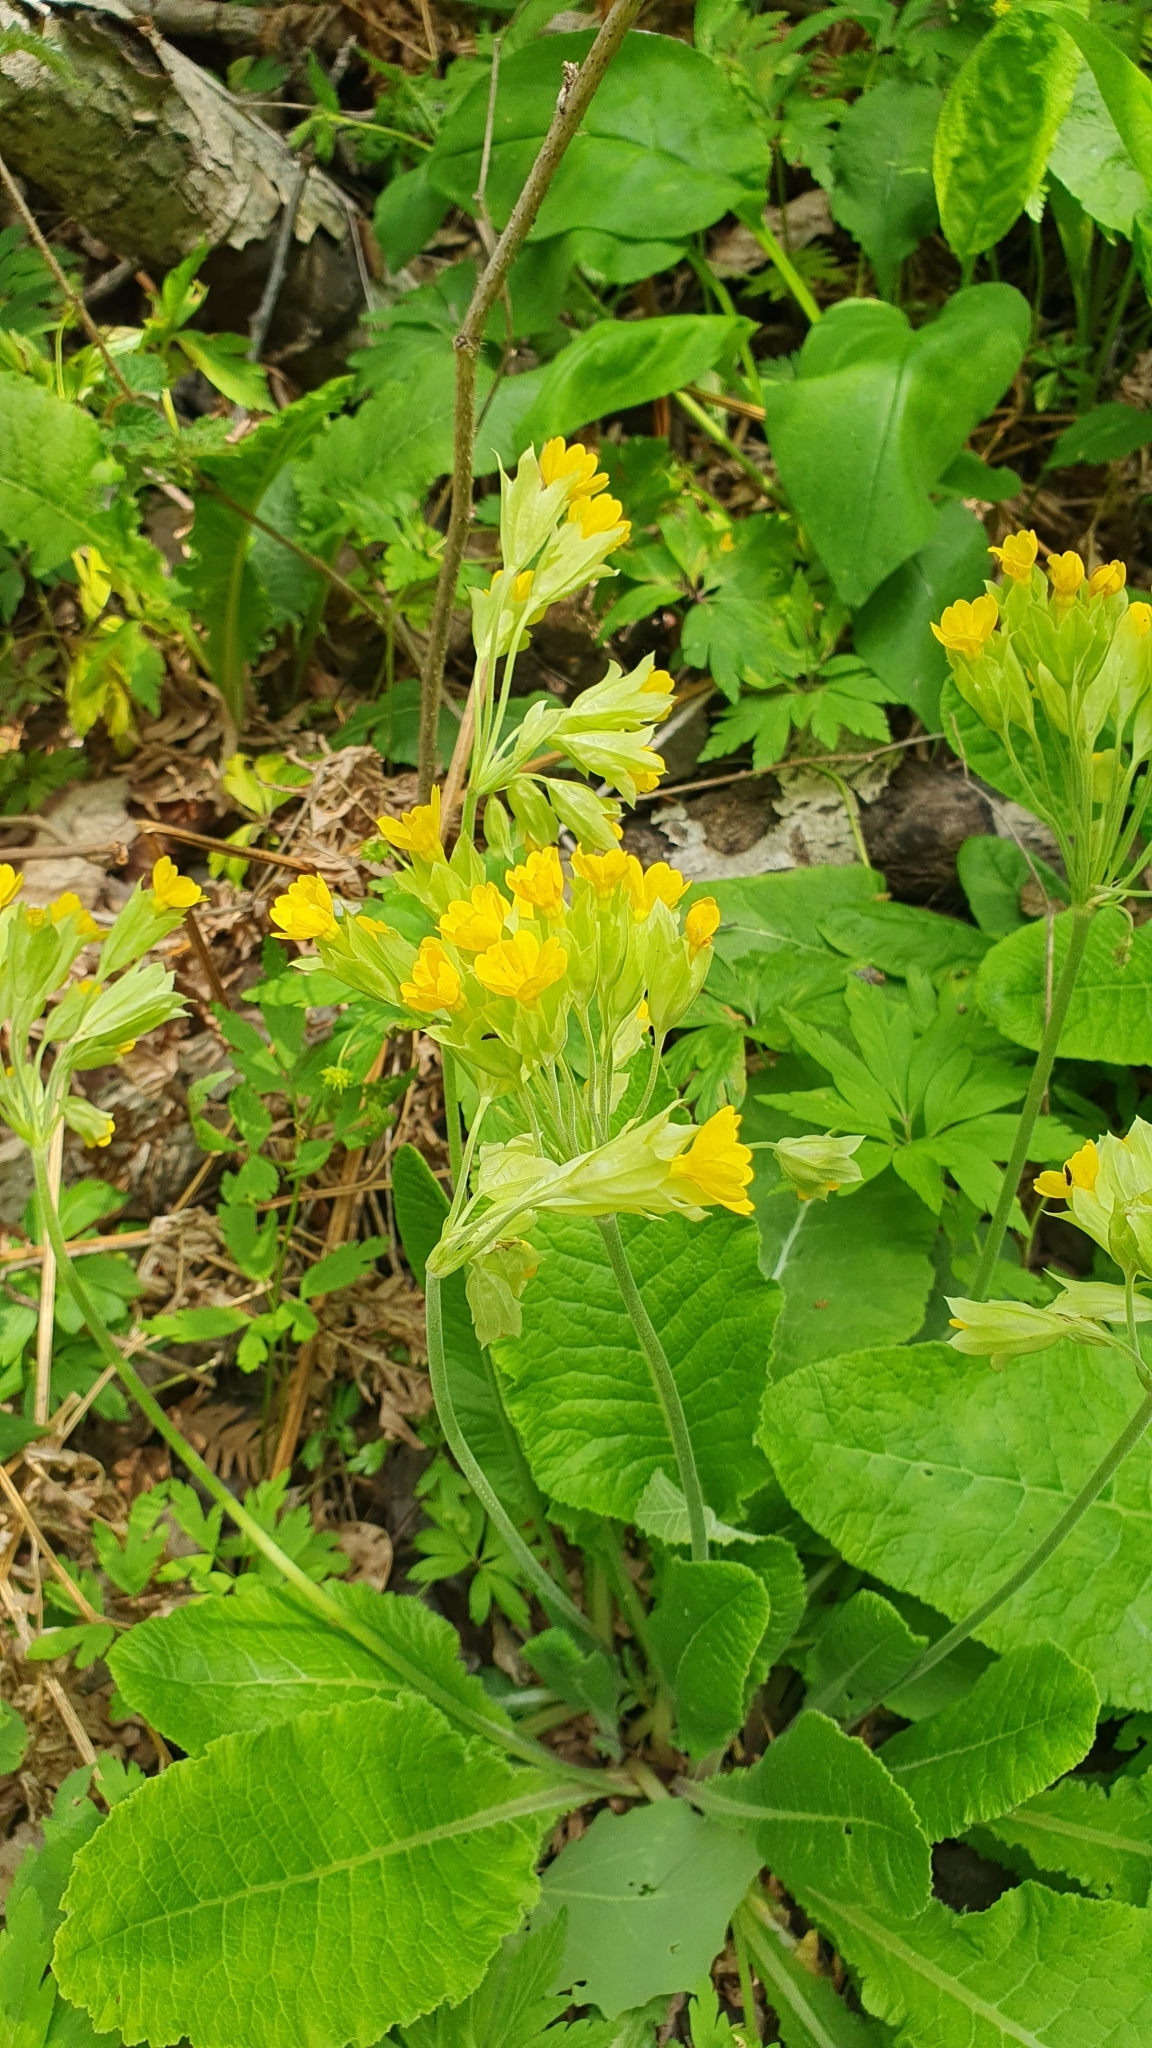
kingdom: Plantae
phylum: Tracheophyta
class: Magnoliopsida
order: Ericales
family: Primulaceae
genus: Primula
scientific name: Primula veris
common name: Cowslip
